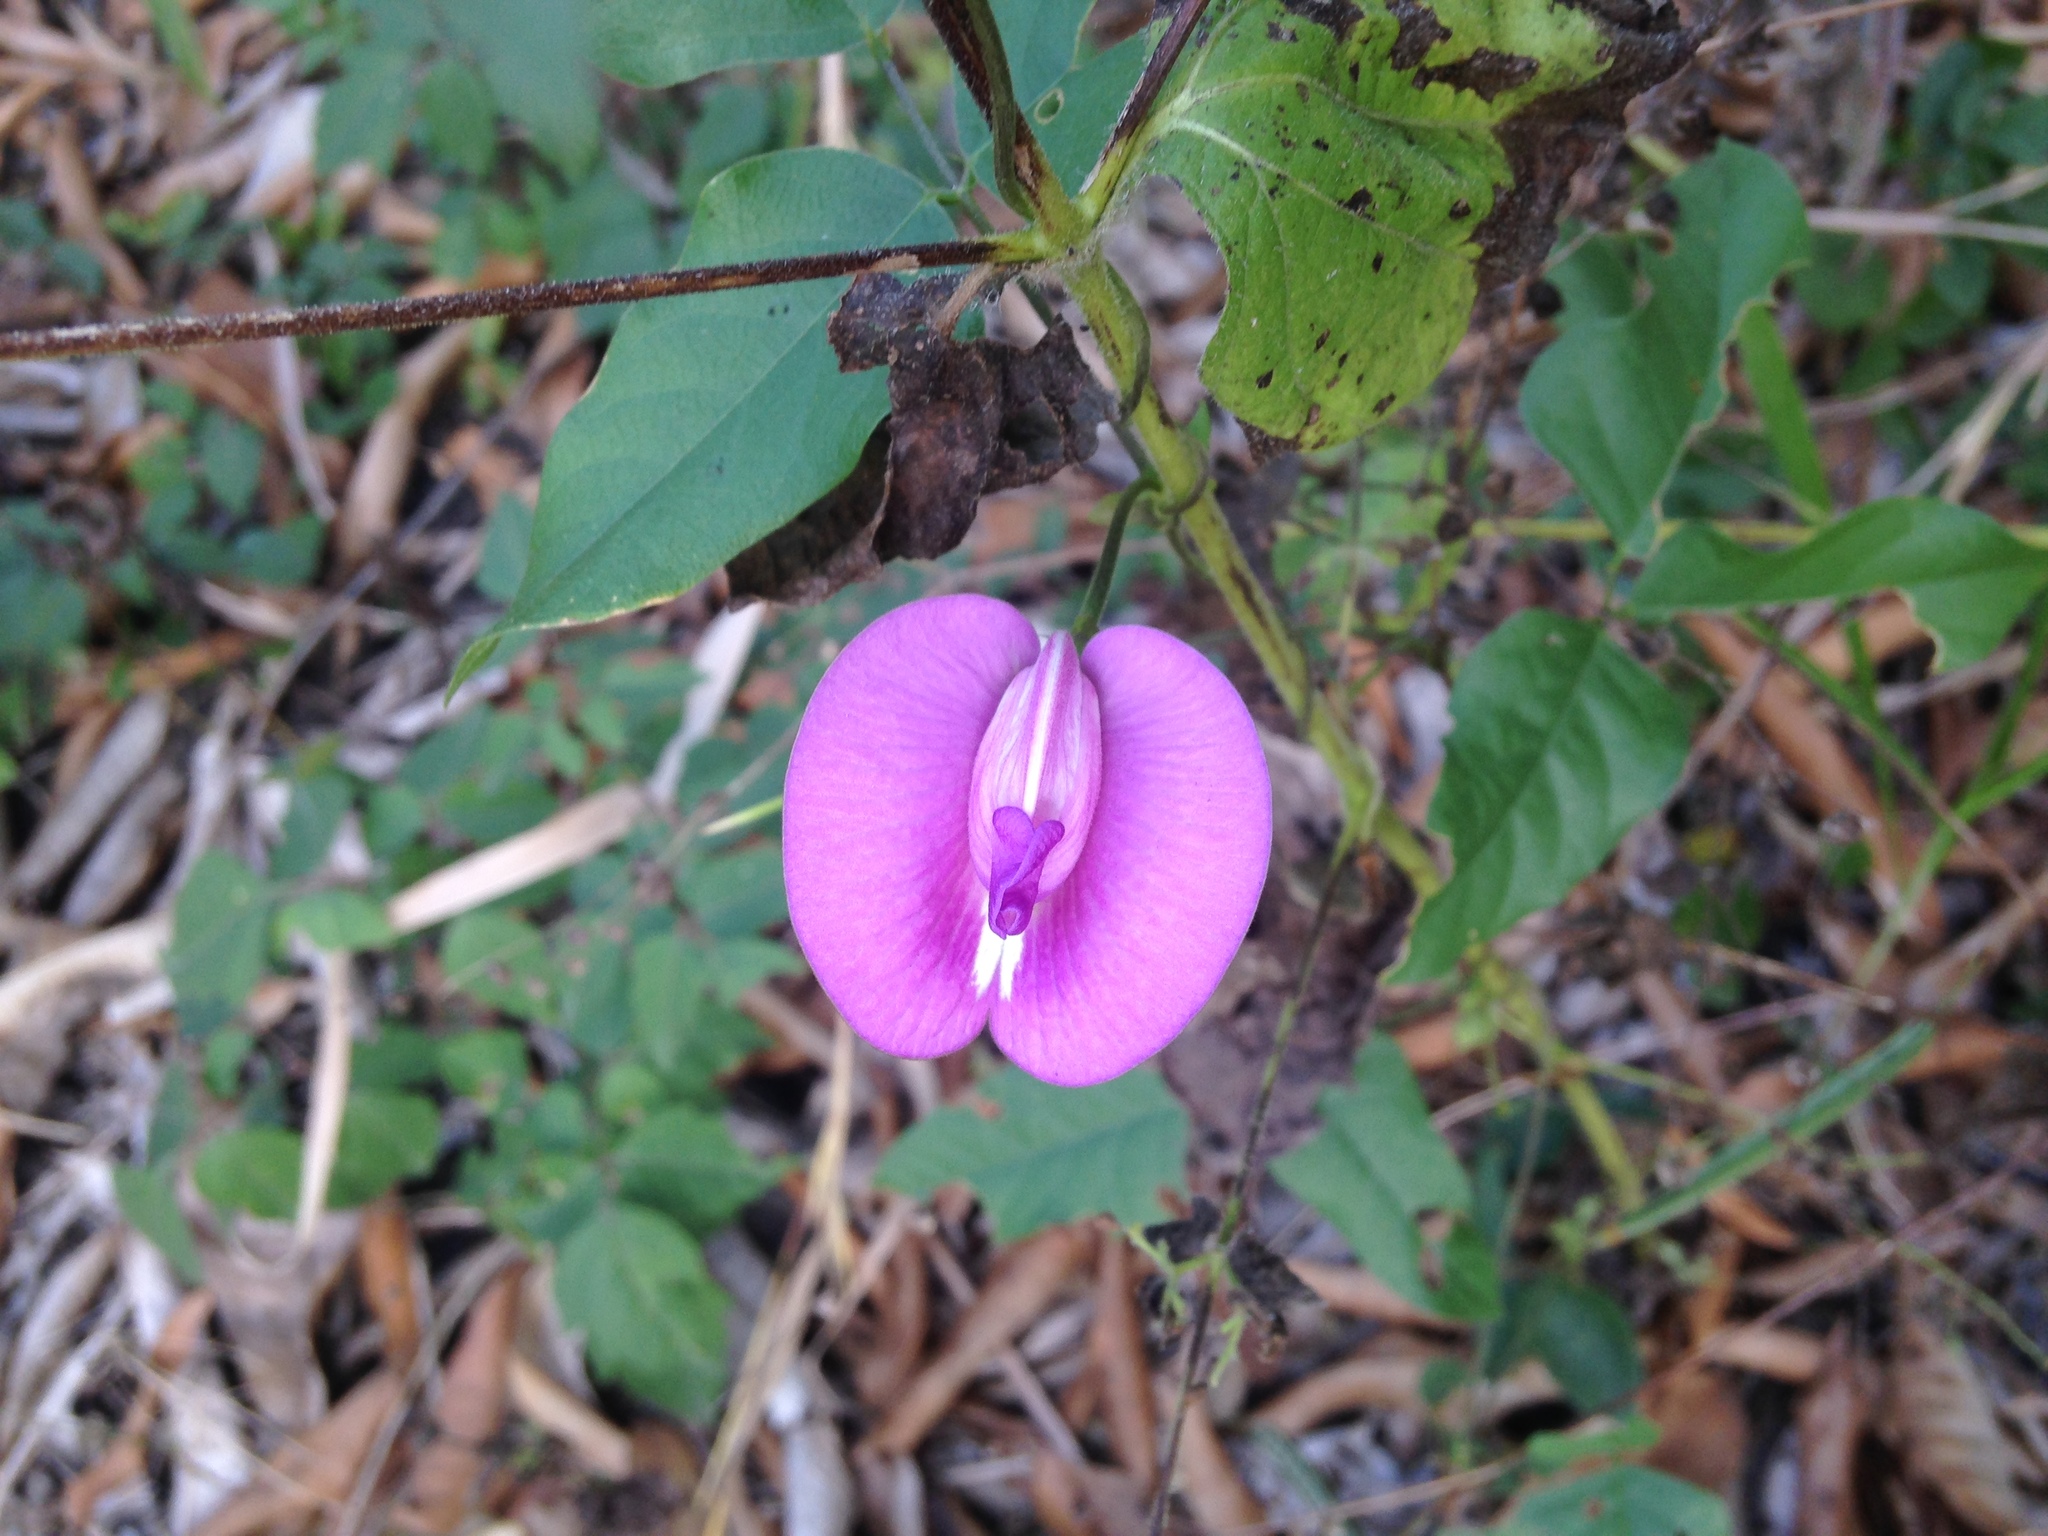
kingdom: Plantae
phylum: Tracheophyta
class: Magnoliopsida
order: Fabales
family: Fabaceae
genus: Centrosema
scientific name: Centrosema virginianum
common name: Butterfly-pea
